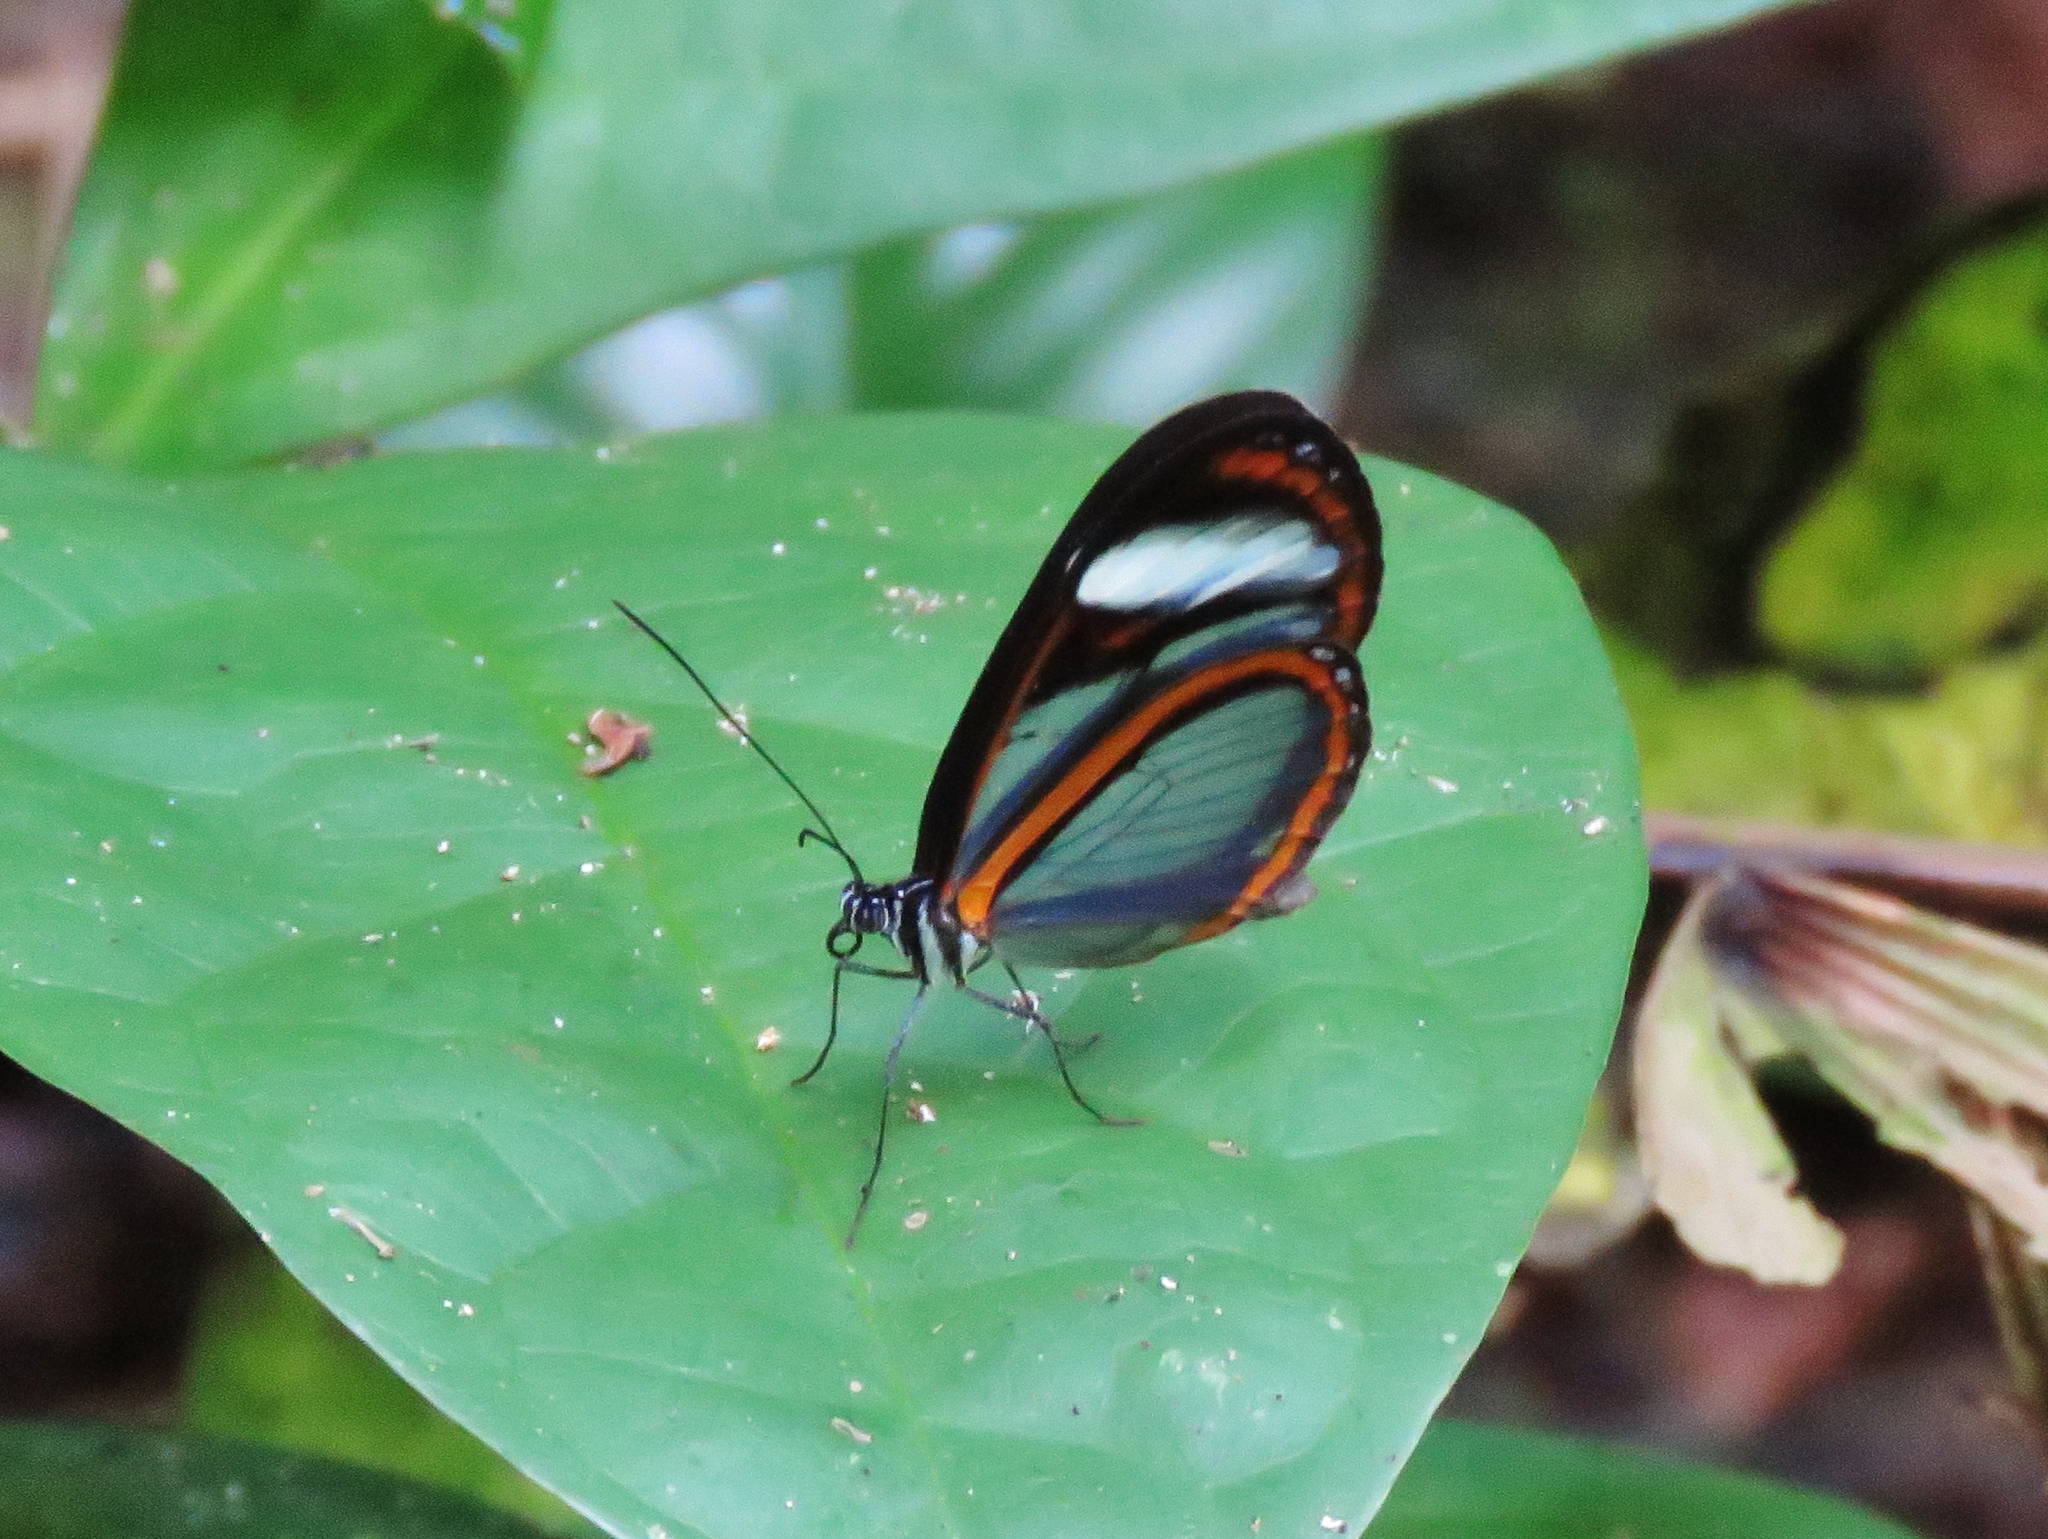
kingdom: Animalia
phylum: Arthropoda
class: Insecta
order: Lepidoptera
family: Nymphalidae
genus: Oleria
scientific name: Oleria didymaea
